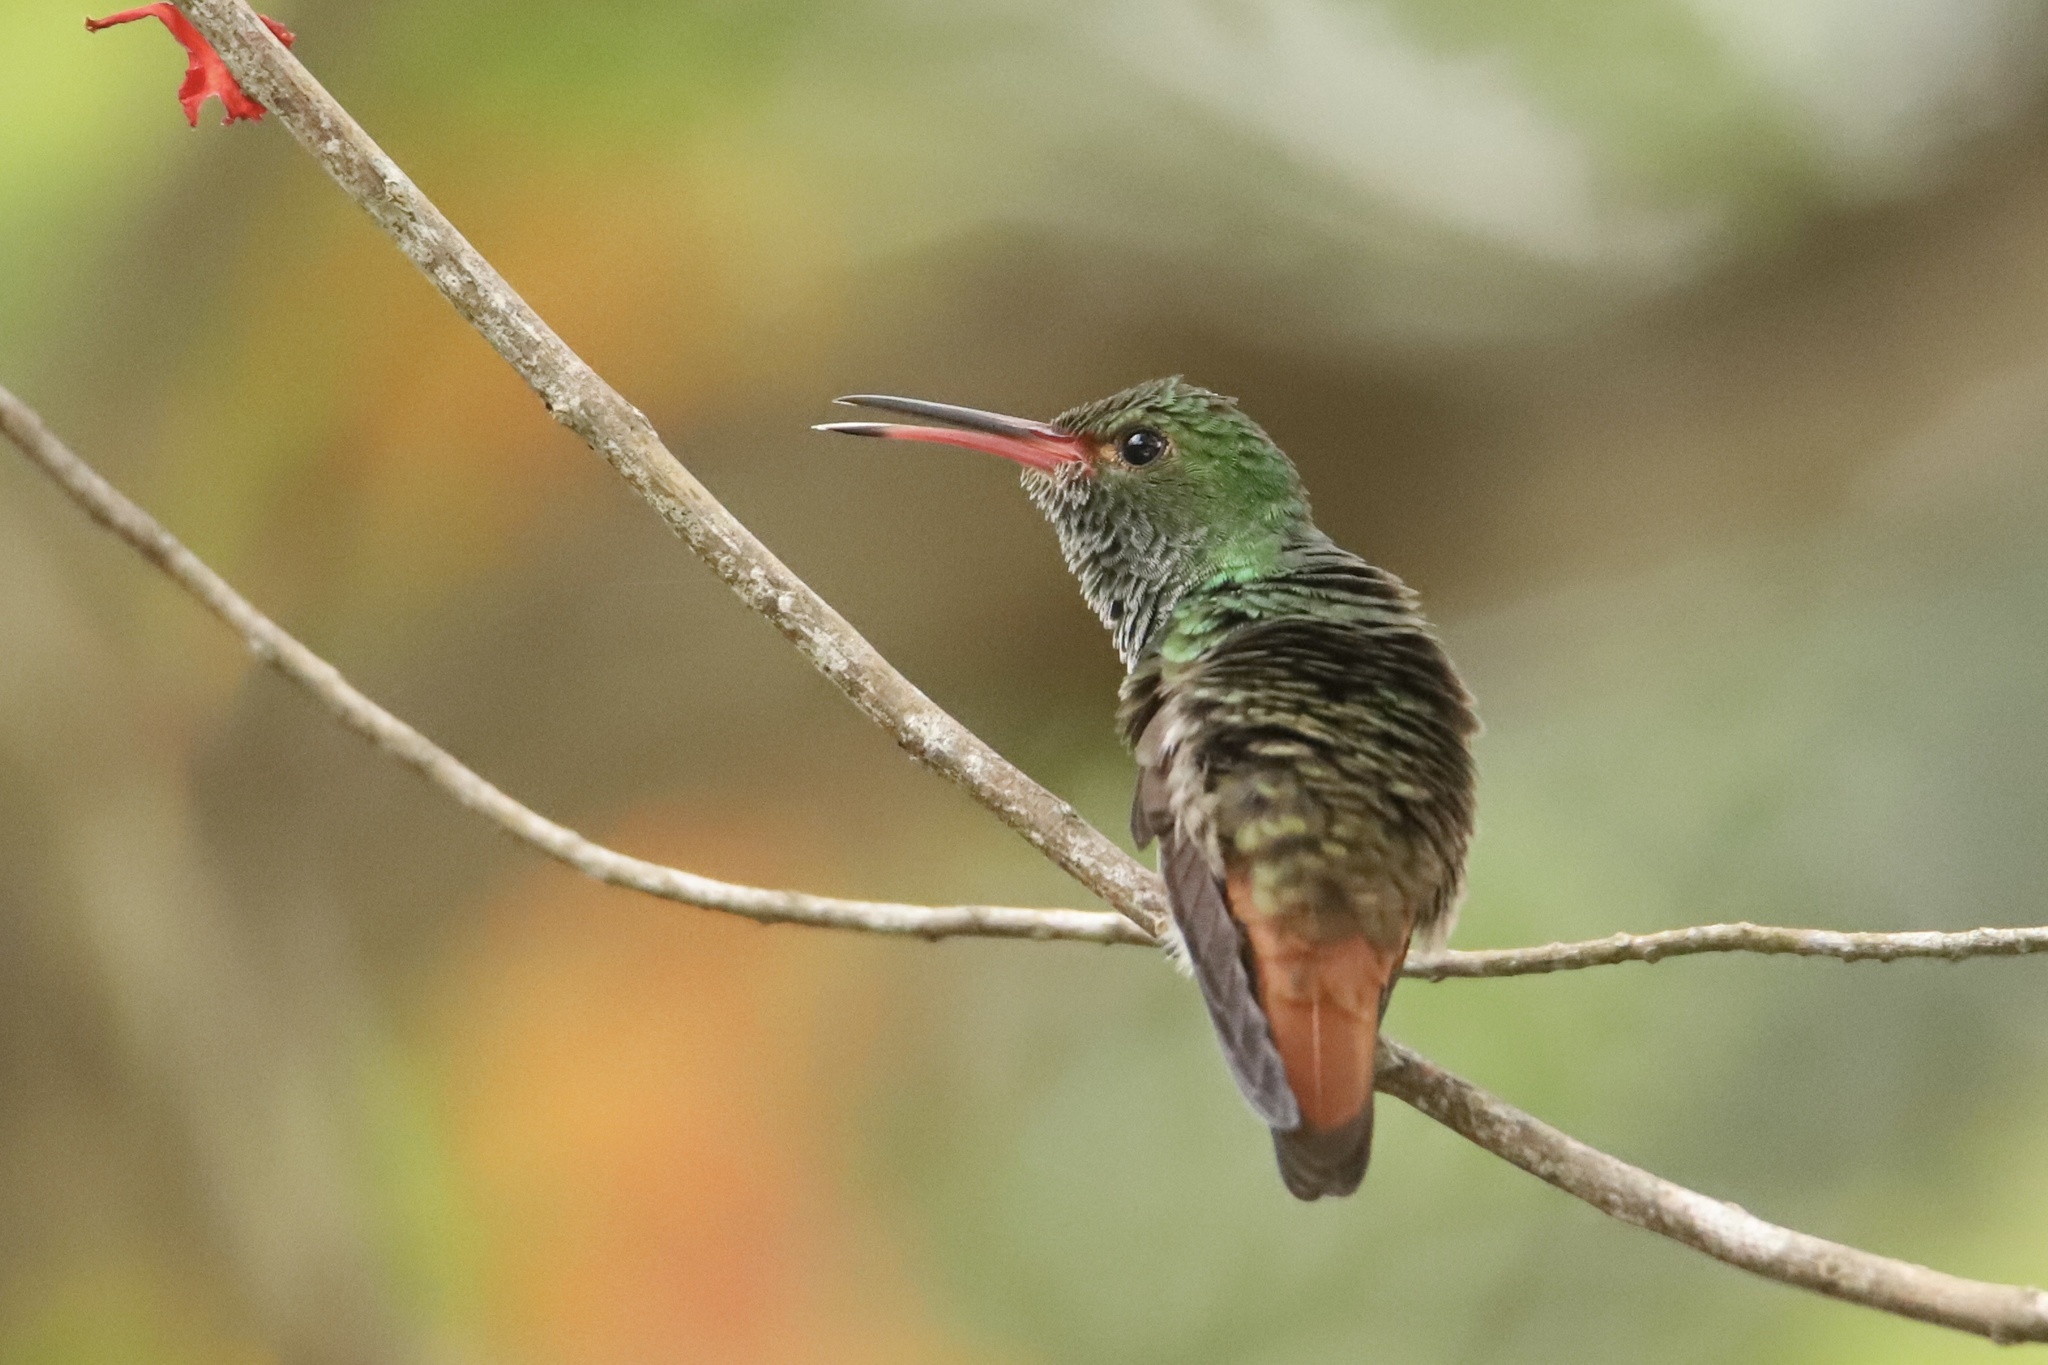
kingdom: Animalia
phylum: Chordata
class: Aves
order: Apodiformes
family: Trochilidae
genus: Amazilia
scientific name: Amazilia tzacatl
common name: Rufous-tailed hummingbird
